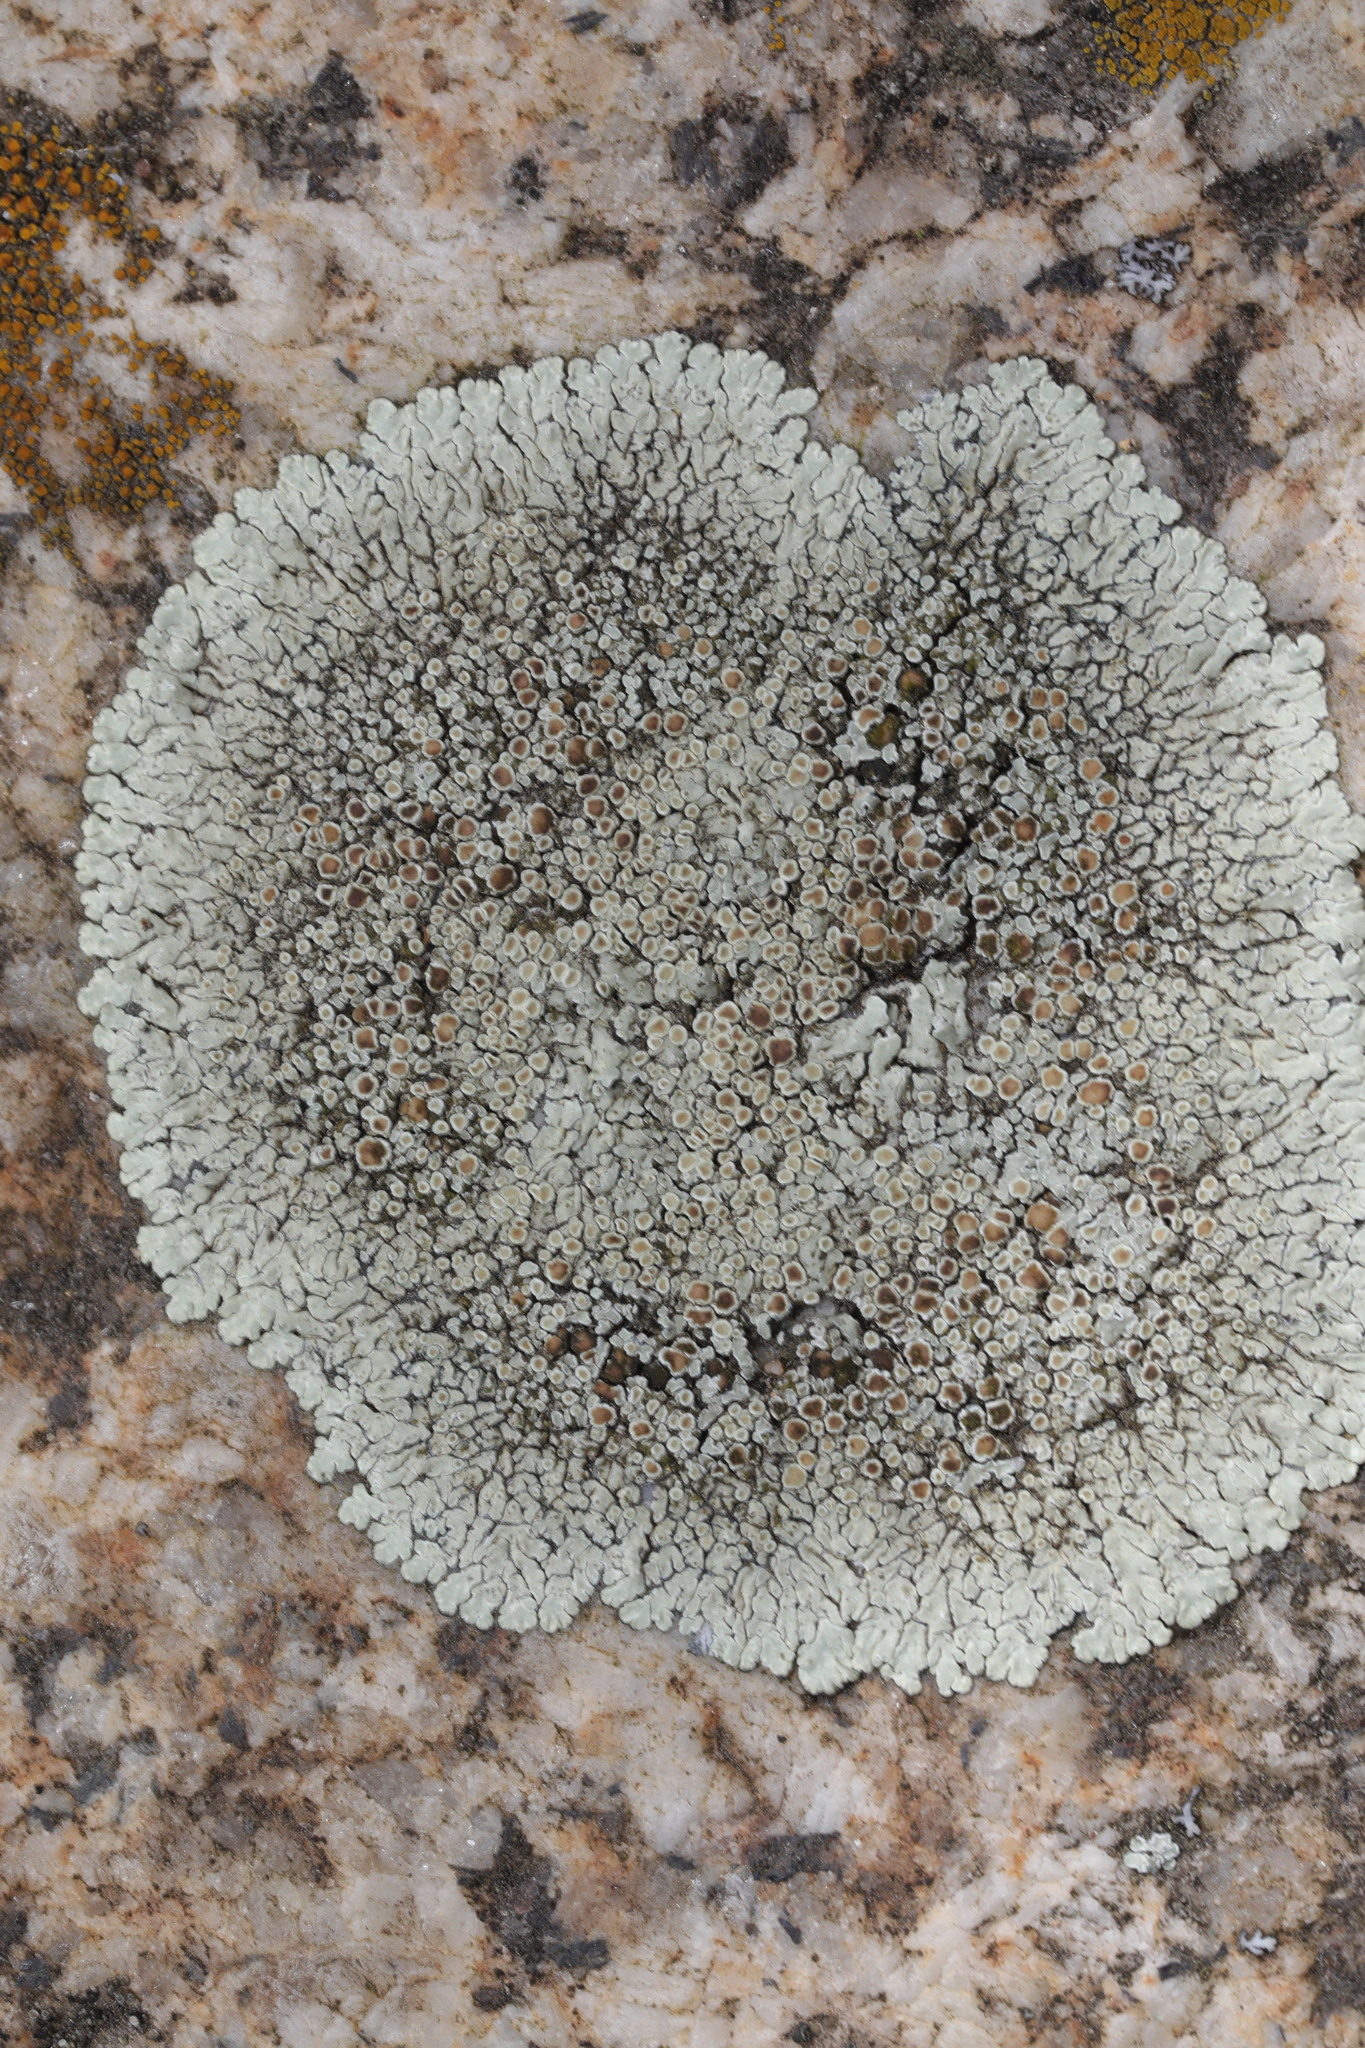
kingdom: Fungi
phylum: Ascomycota
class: Lecanoromycetes
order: Lecanorales
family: Lecanoraceae
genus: Protoparmeliopsis
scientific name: Protoparmeliopsis muralis
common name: Stonewall rim lichen
